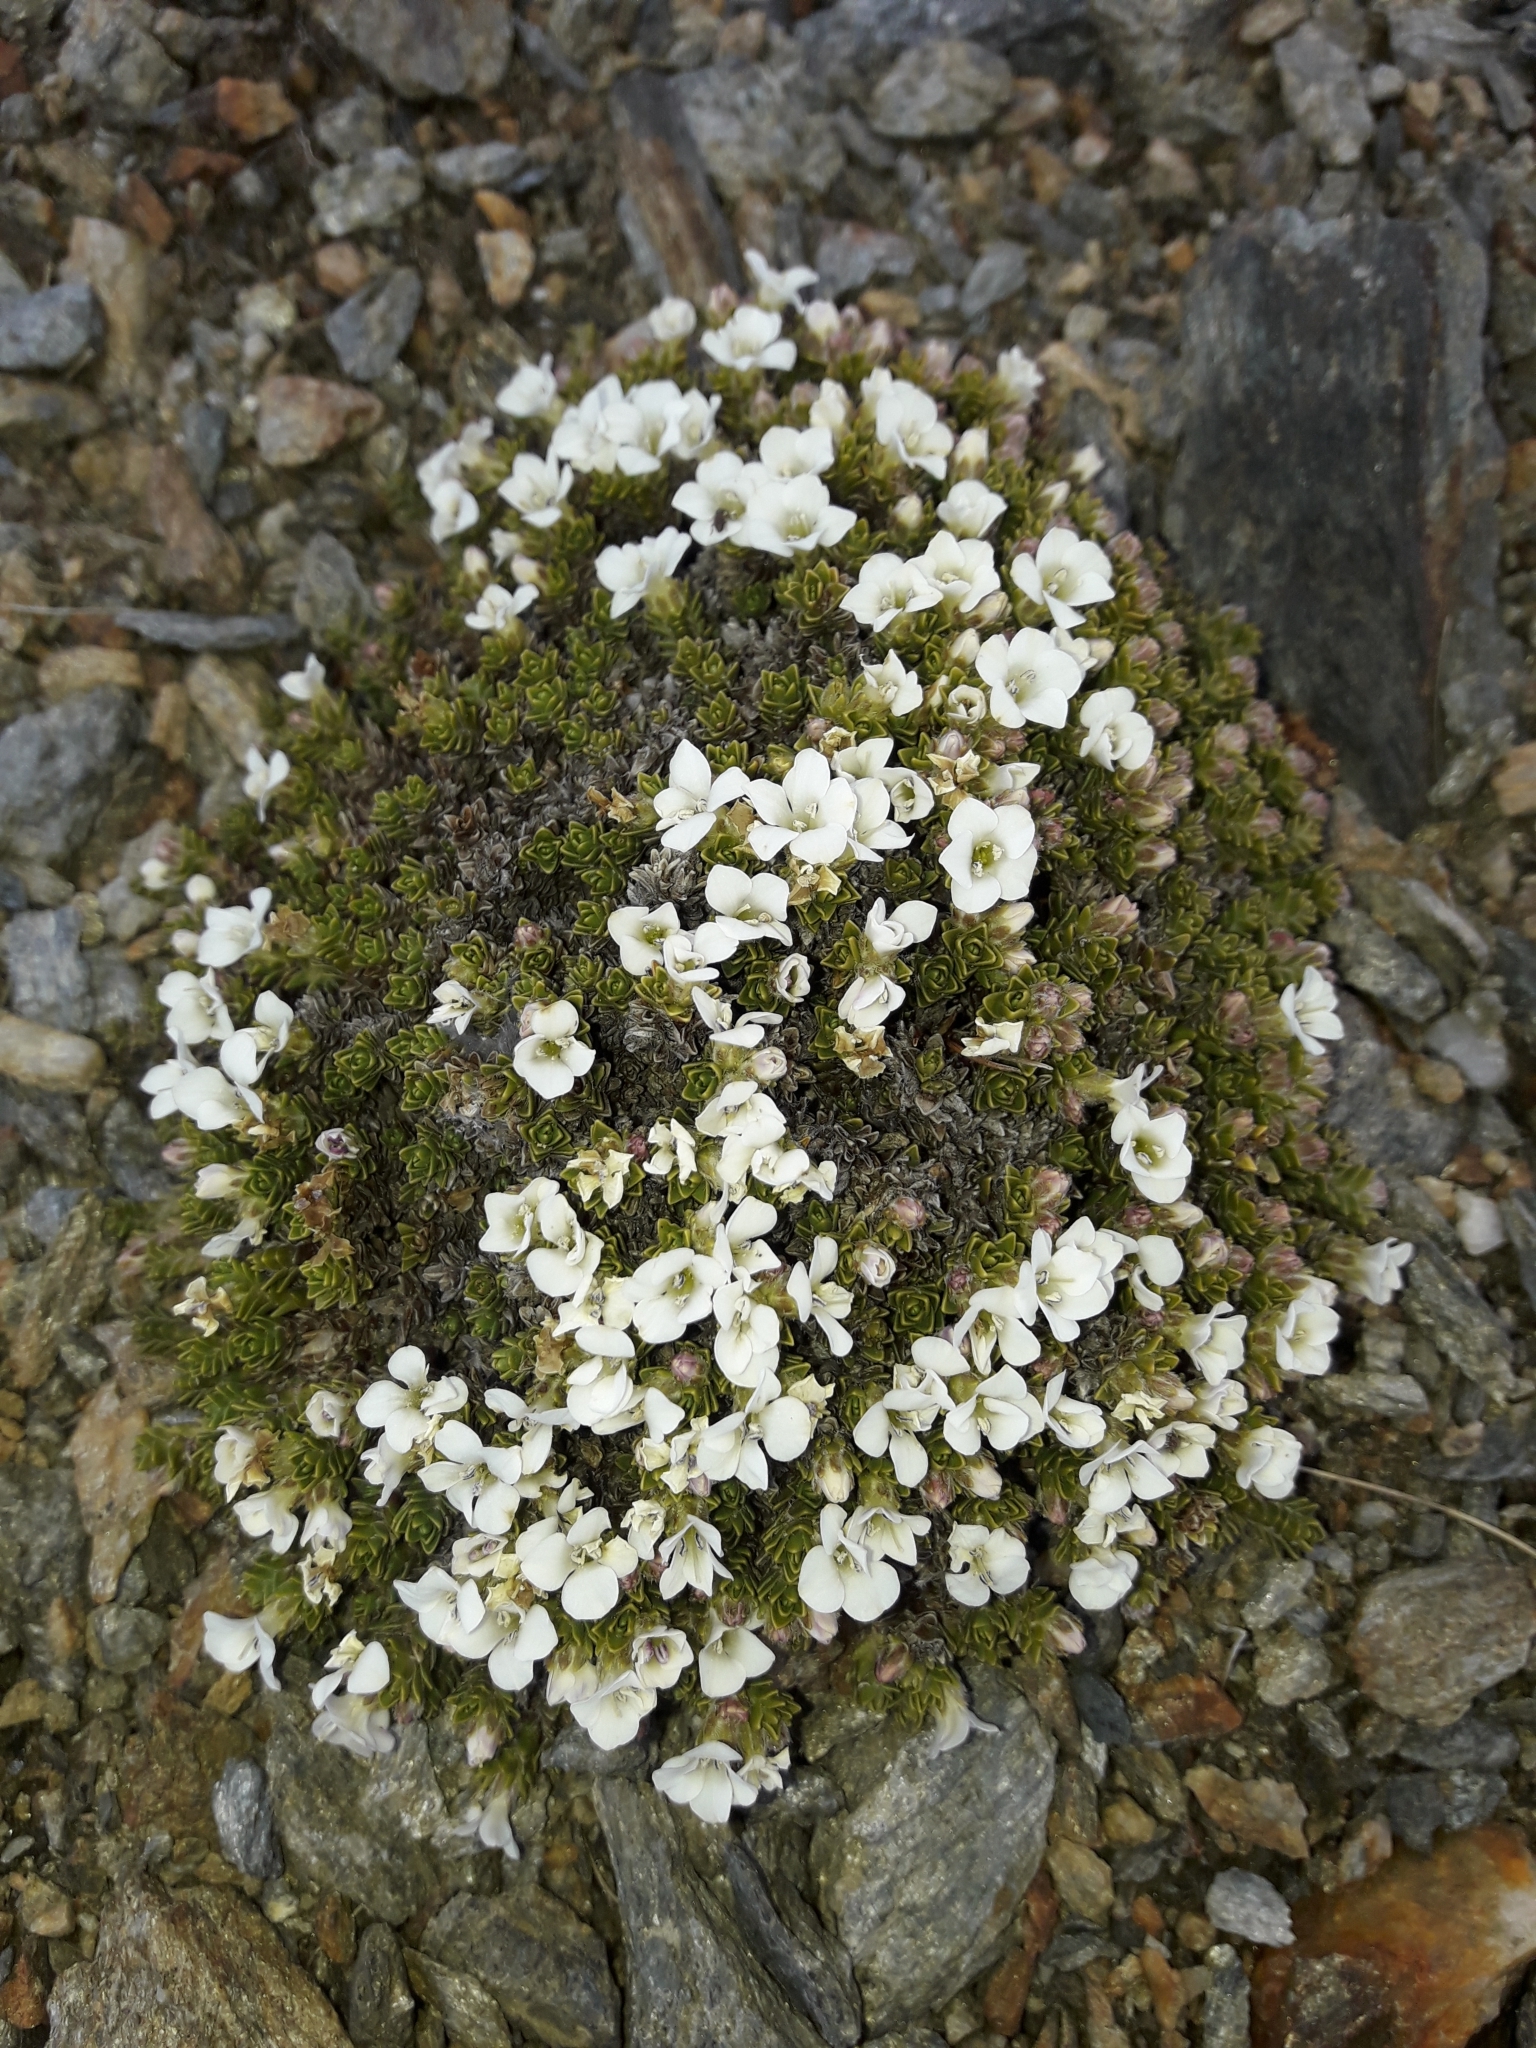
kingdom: Plantae
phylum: Tracheophyta
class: Magnoliopsida
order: Lamiales
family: Plantaginaceae
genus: Veronica
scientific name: Veronica uniflora
